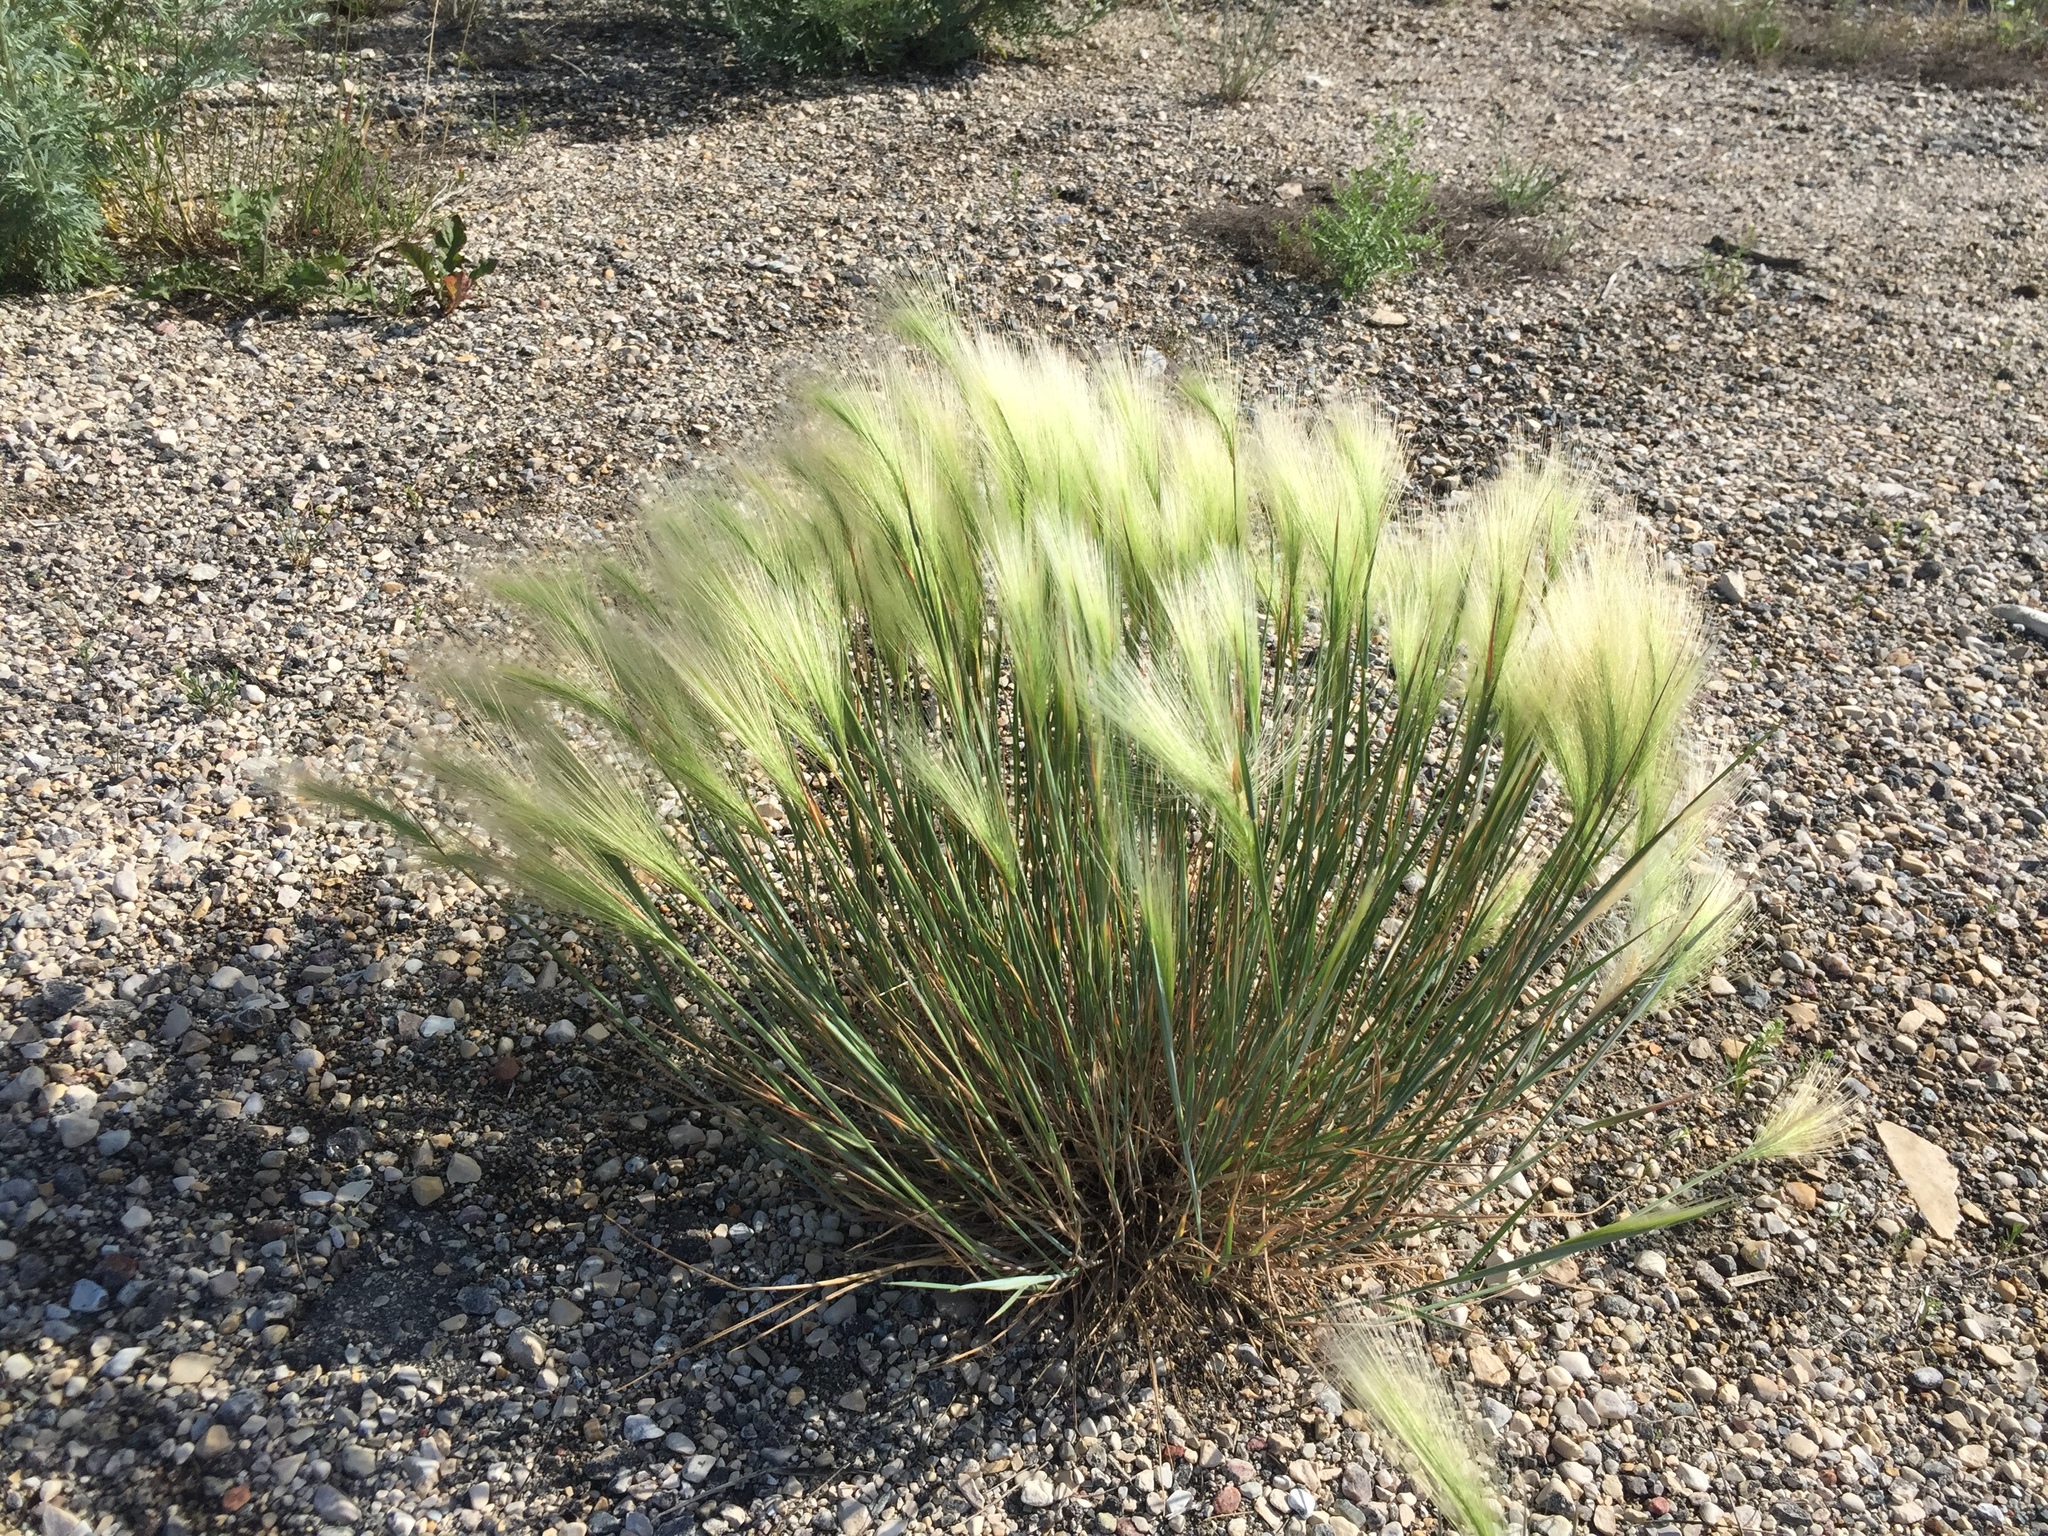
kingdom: Plantae
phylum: Tracheophyta
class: Liliopsida
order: Poales
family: Poaceae
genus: Hordeum
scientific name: Hordeum jubatum
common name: Foxtail barley
